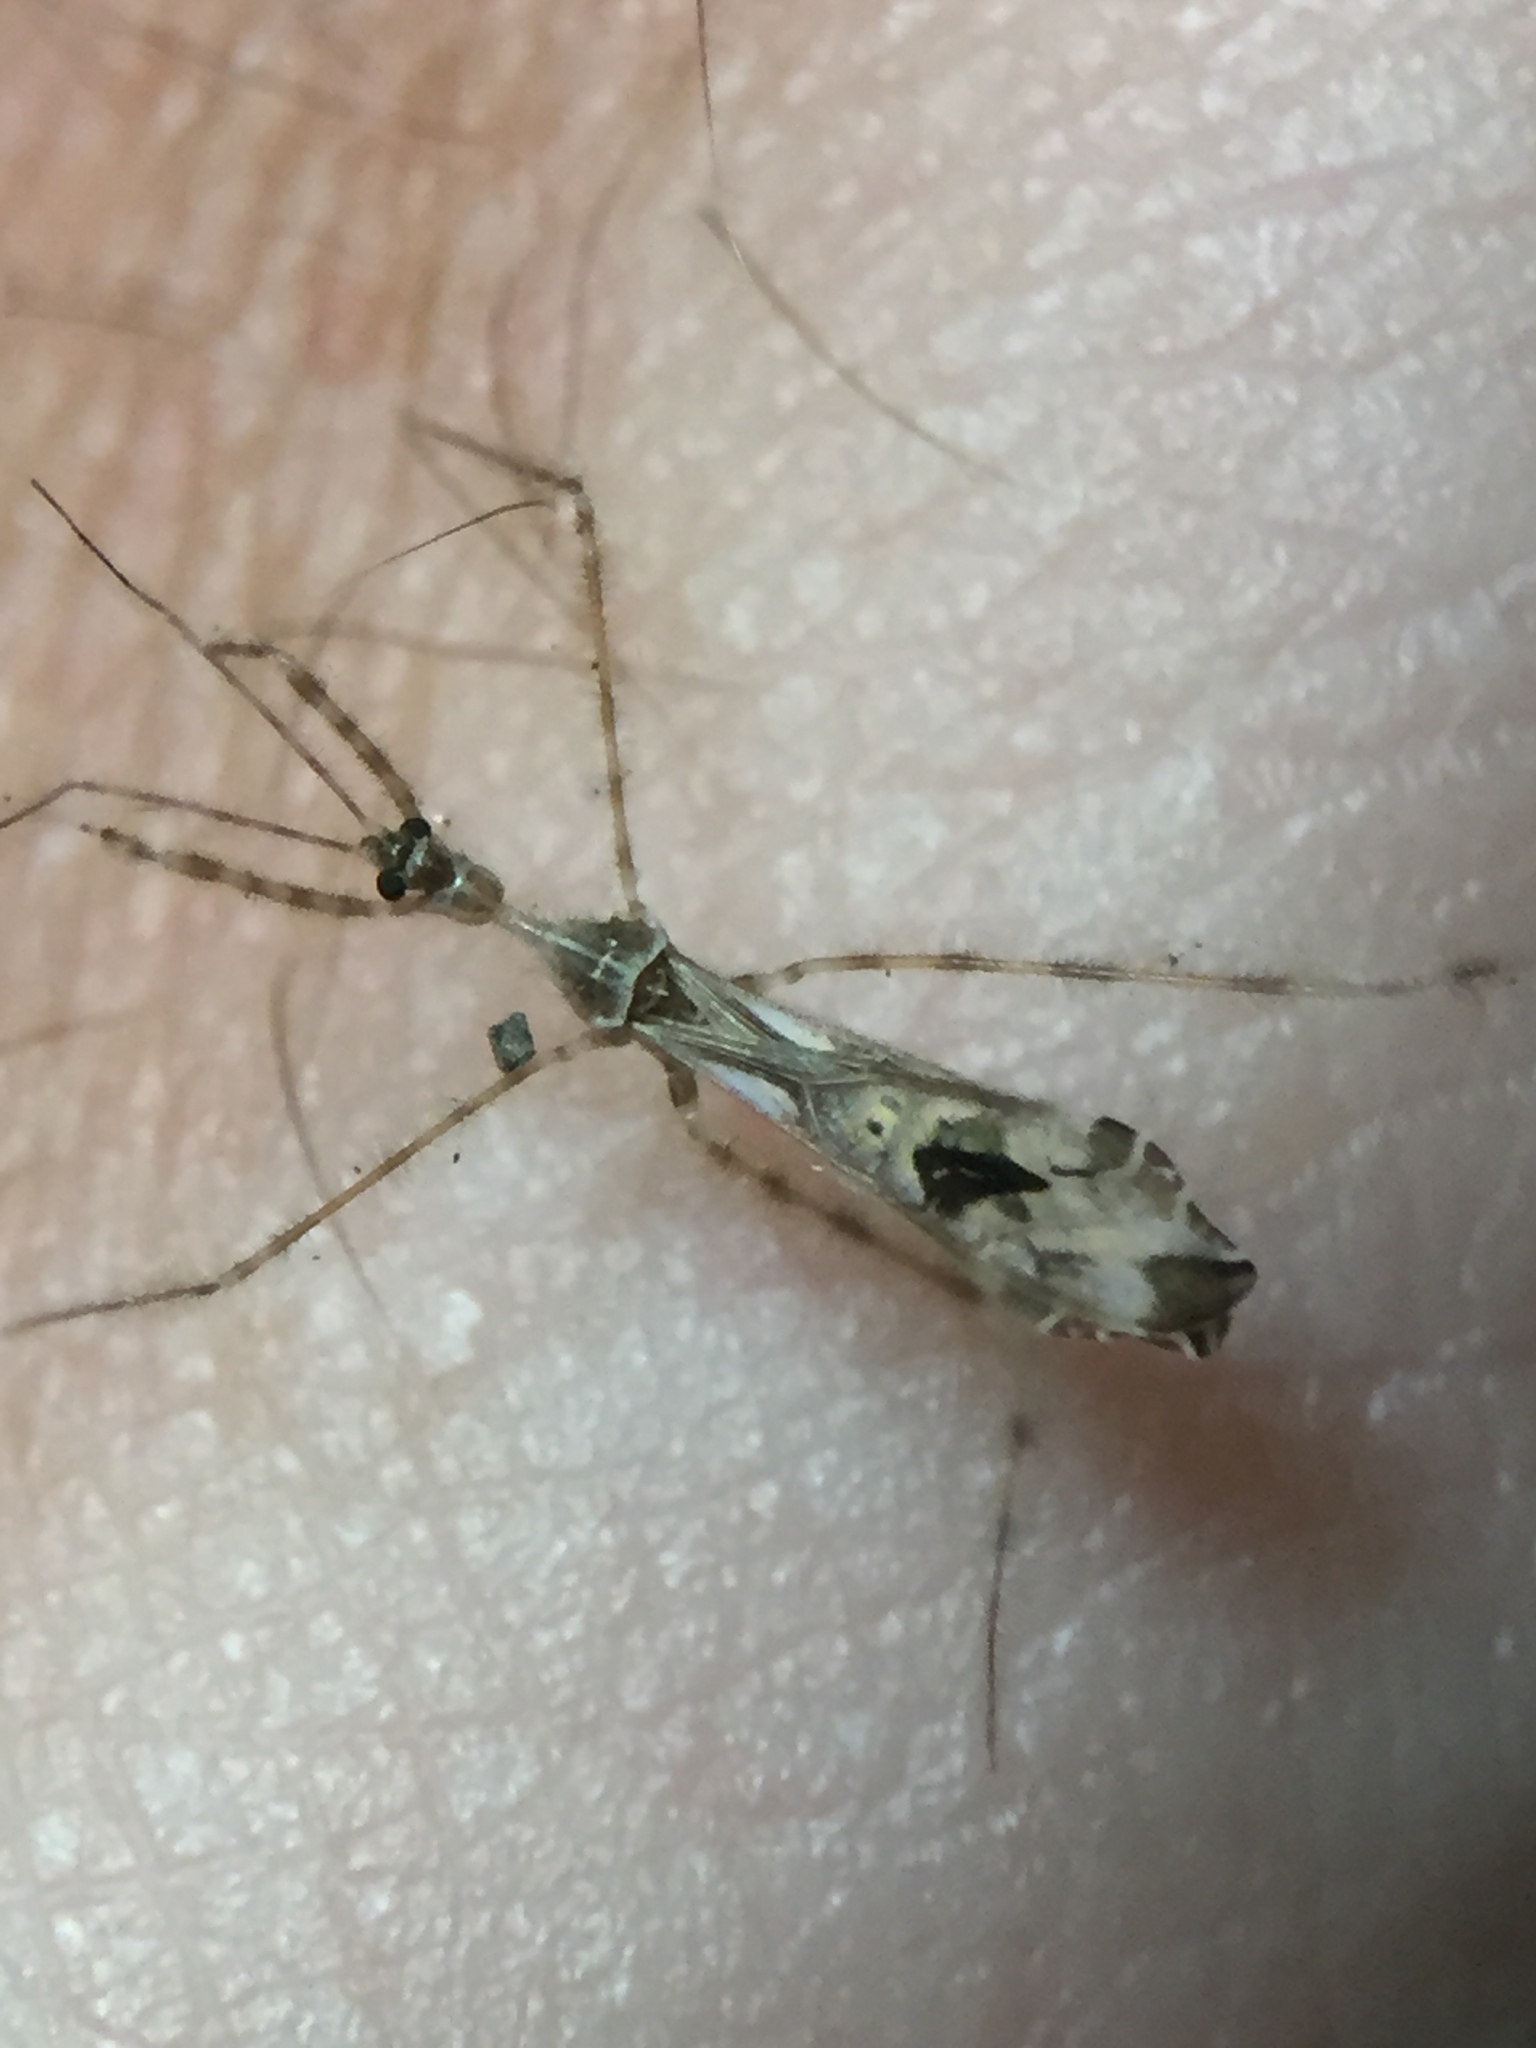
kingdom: Animalia
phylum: Arthropoda
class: Insecta
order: Hemiptera
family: Reduviidae
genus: Stenolemus
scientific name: Stenolemus fraterculus
